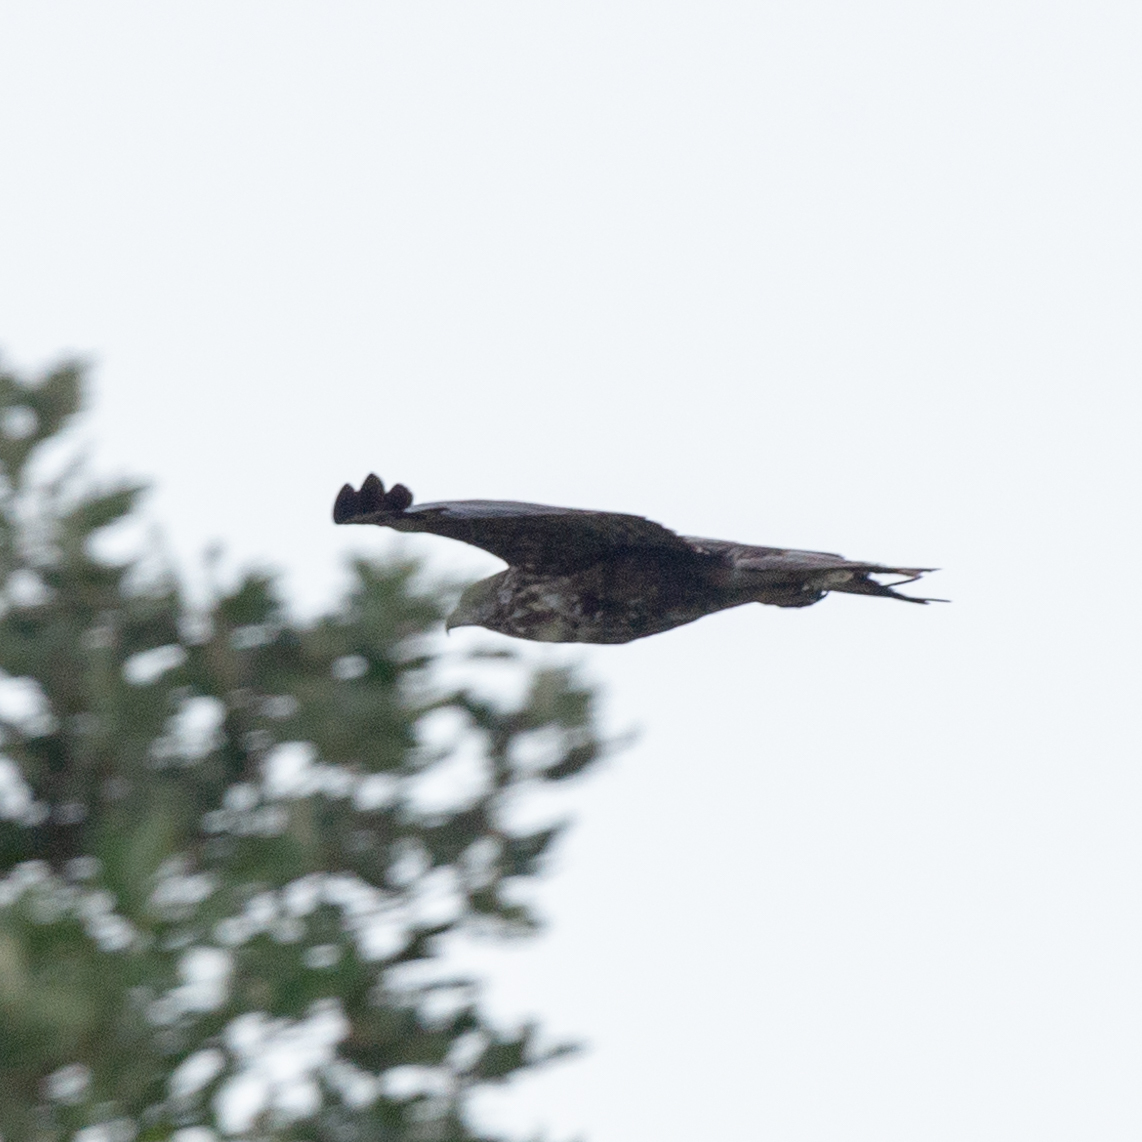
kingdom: Animalia
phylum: Chordata
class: Aves
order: Accipitriformes
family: Accipitridae
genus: Buteo
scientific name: Buteo buteo
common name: Common buzzard
